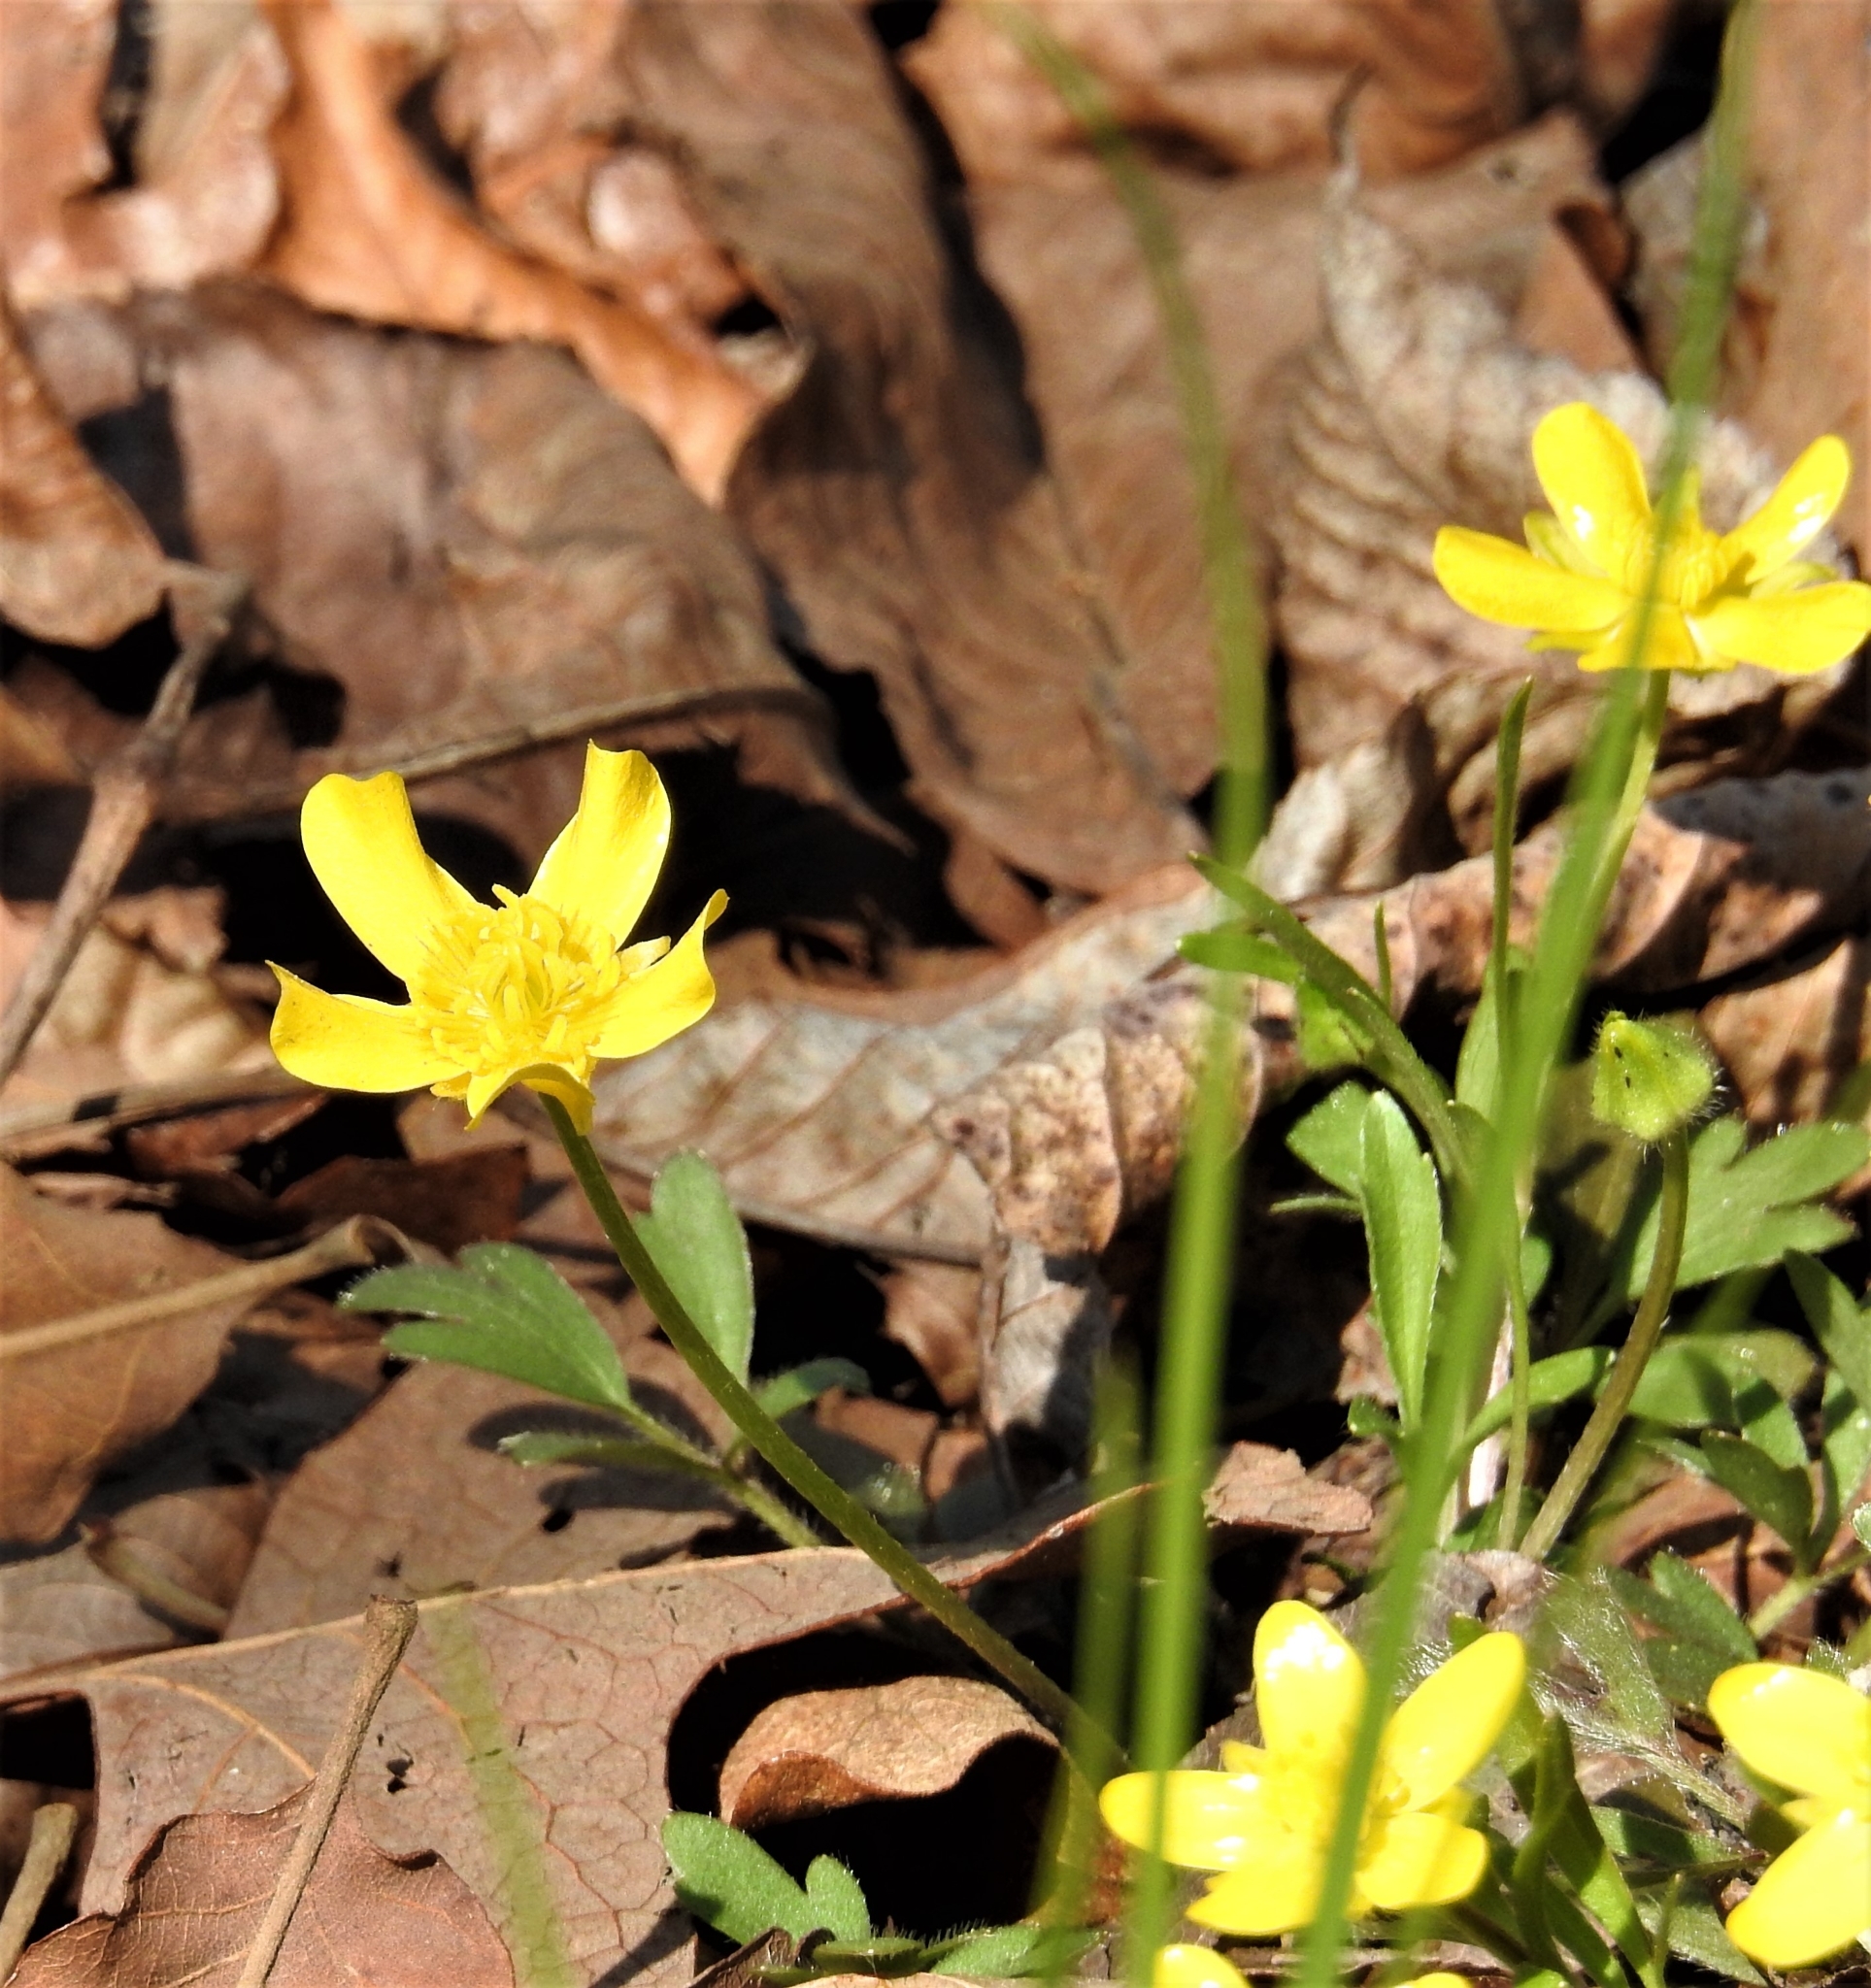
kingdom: Plantae
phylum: Tracheophyta
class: Magnoliopsida
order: Ranunculales
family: Ranunculaceae
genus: Ranunculus
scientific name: Ranunculus fascicularis
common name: Early buttercup
